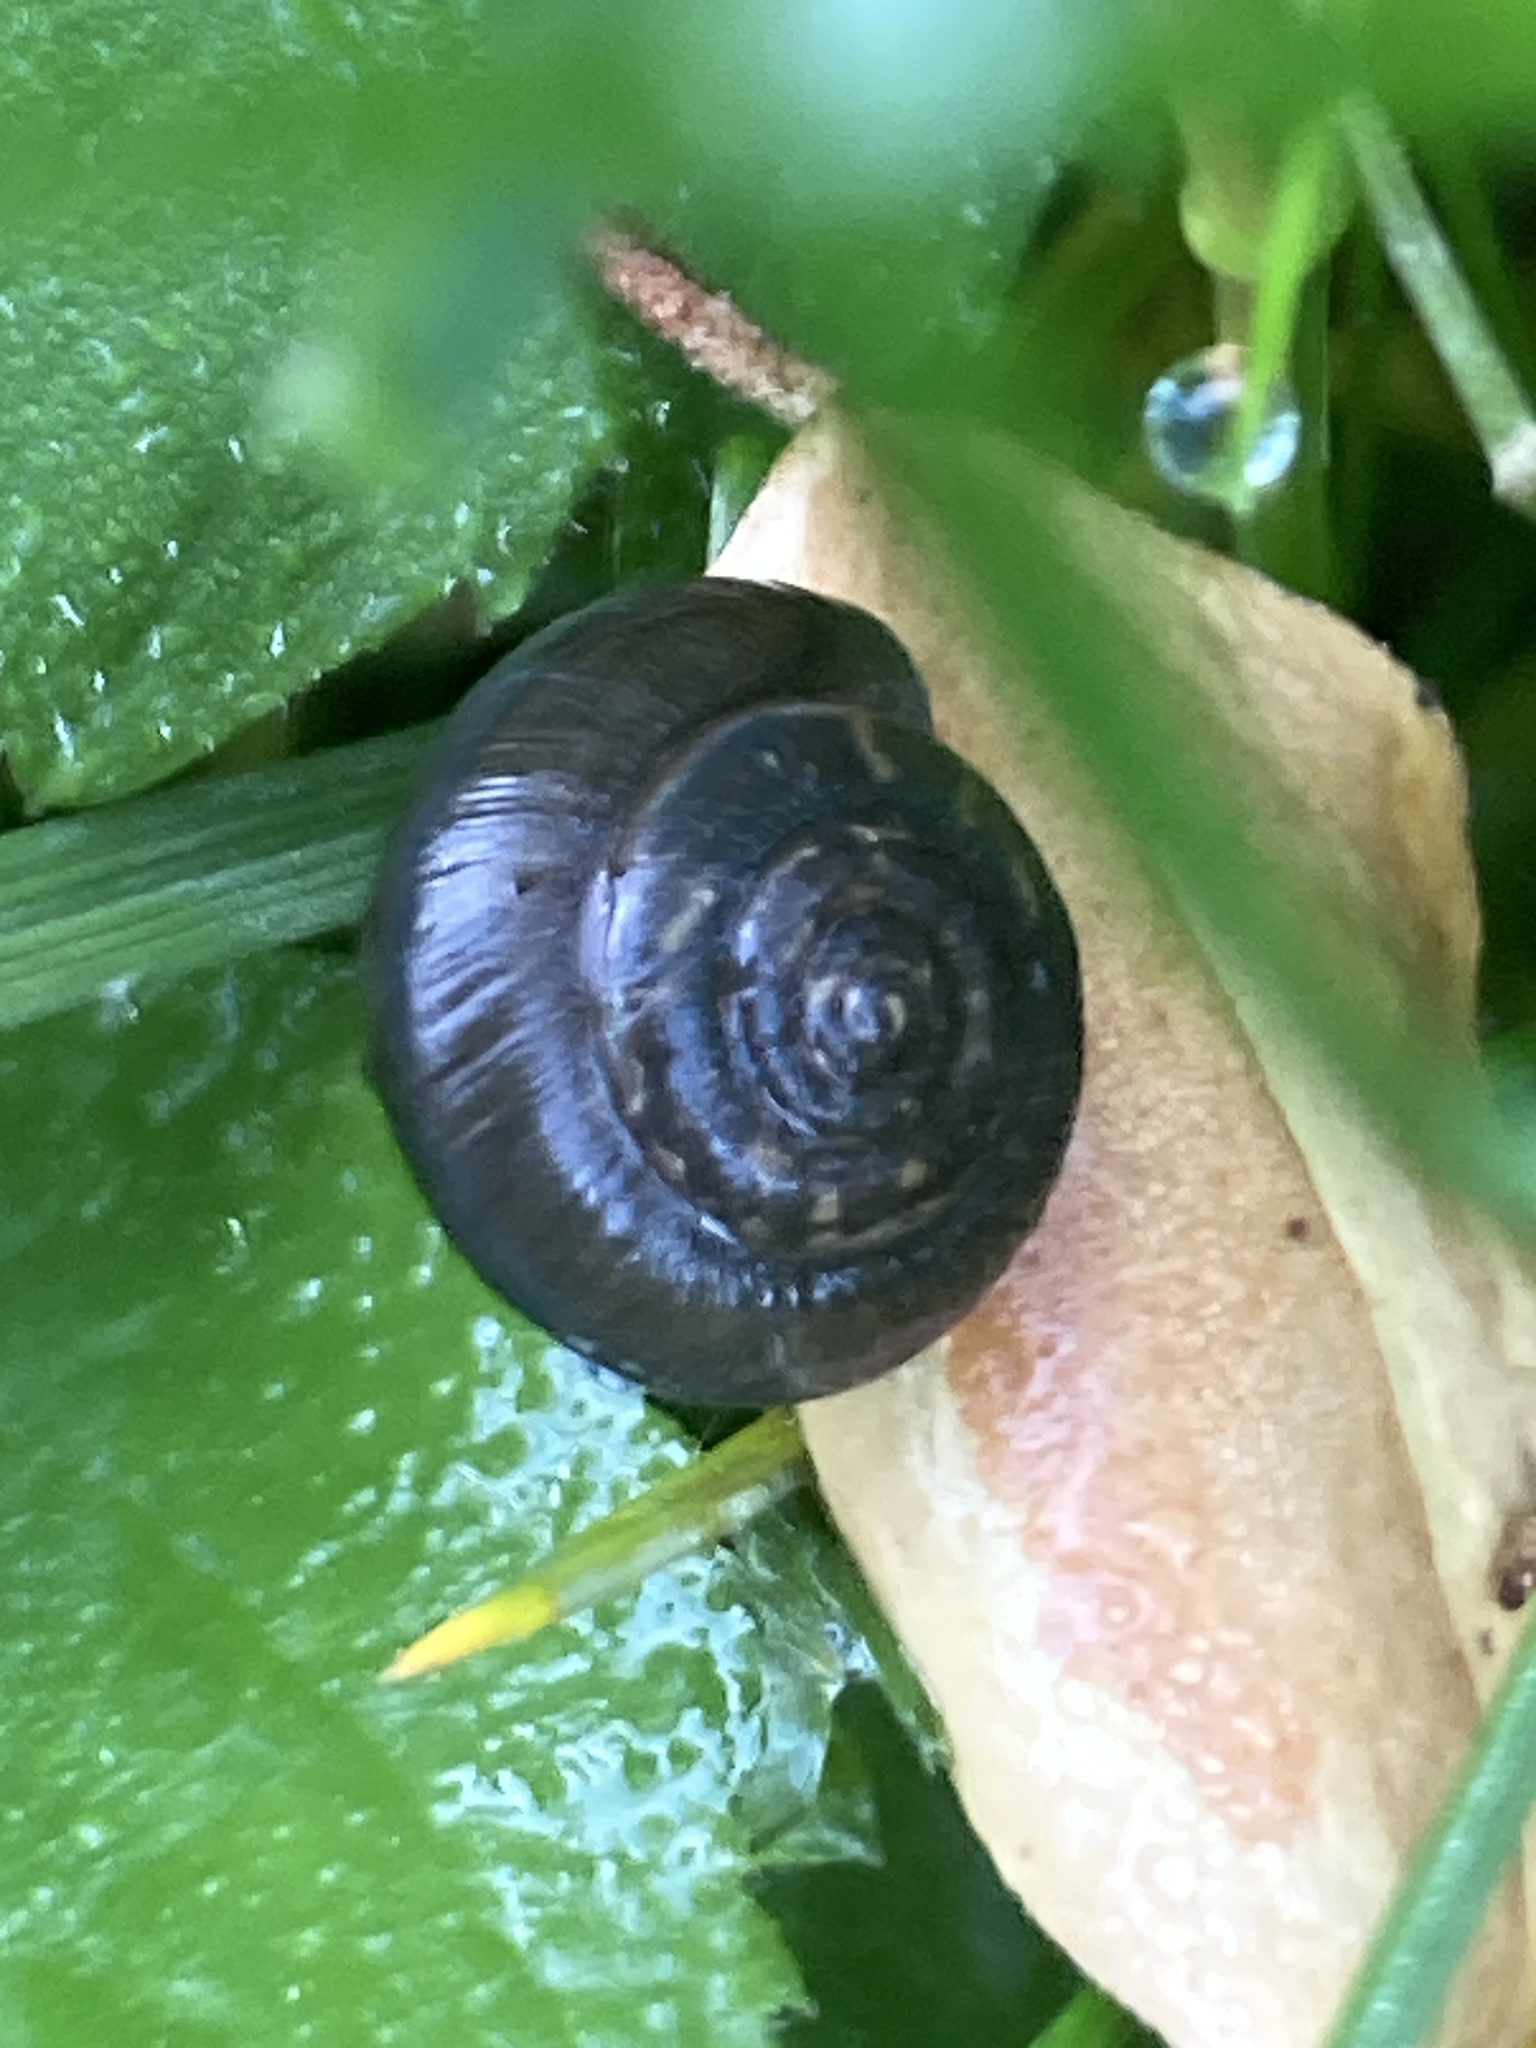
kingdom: Animalia
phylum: Mollusca
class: Gastropoda
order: Stylommatophora
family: Hygromiidae
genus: Trochulus
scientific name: Trochulus striolatus
